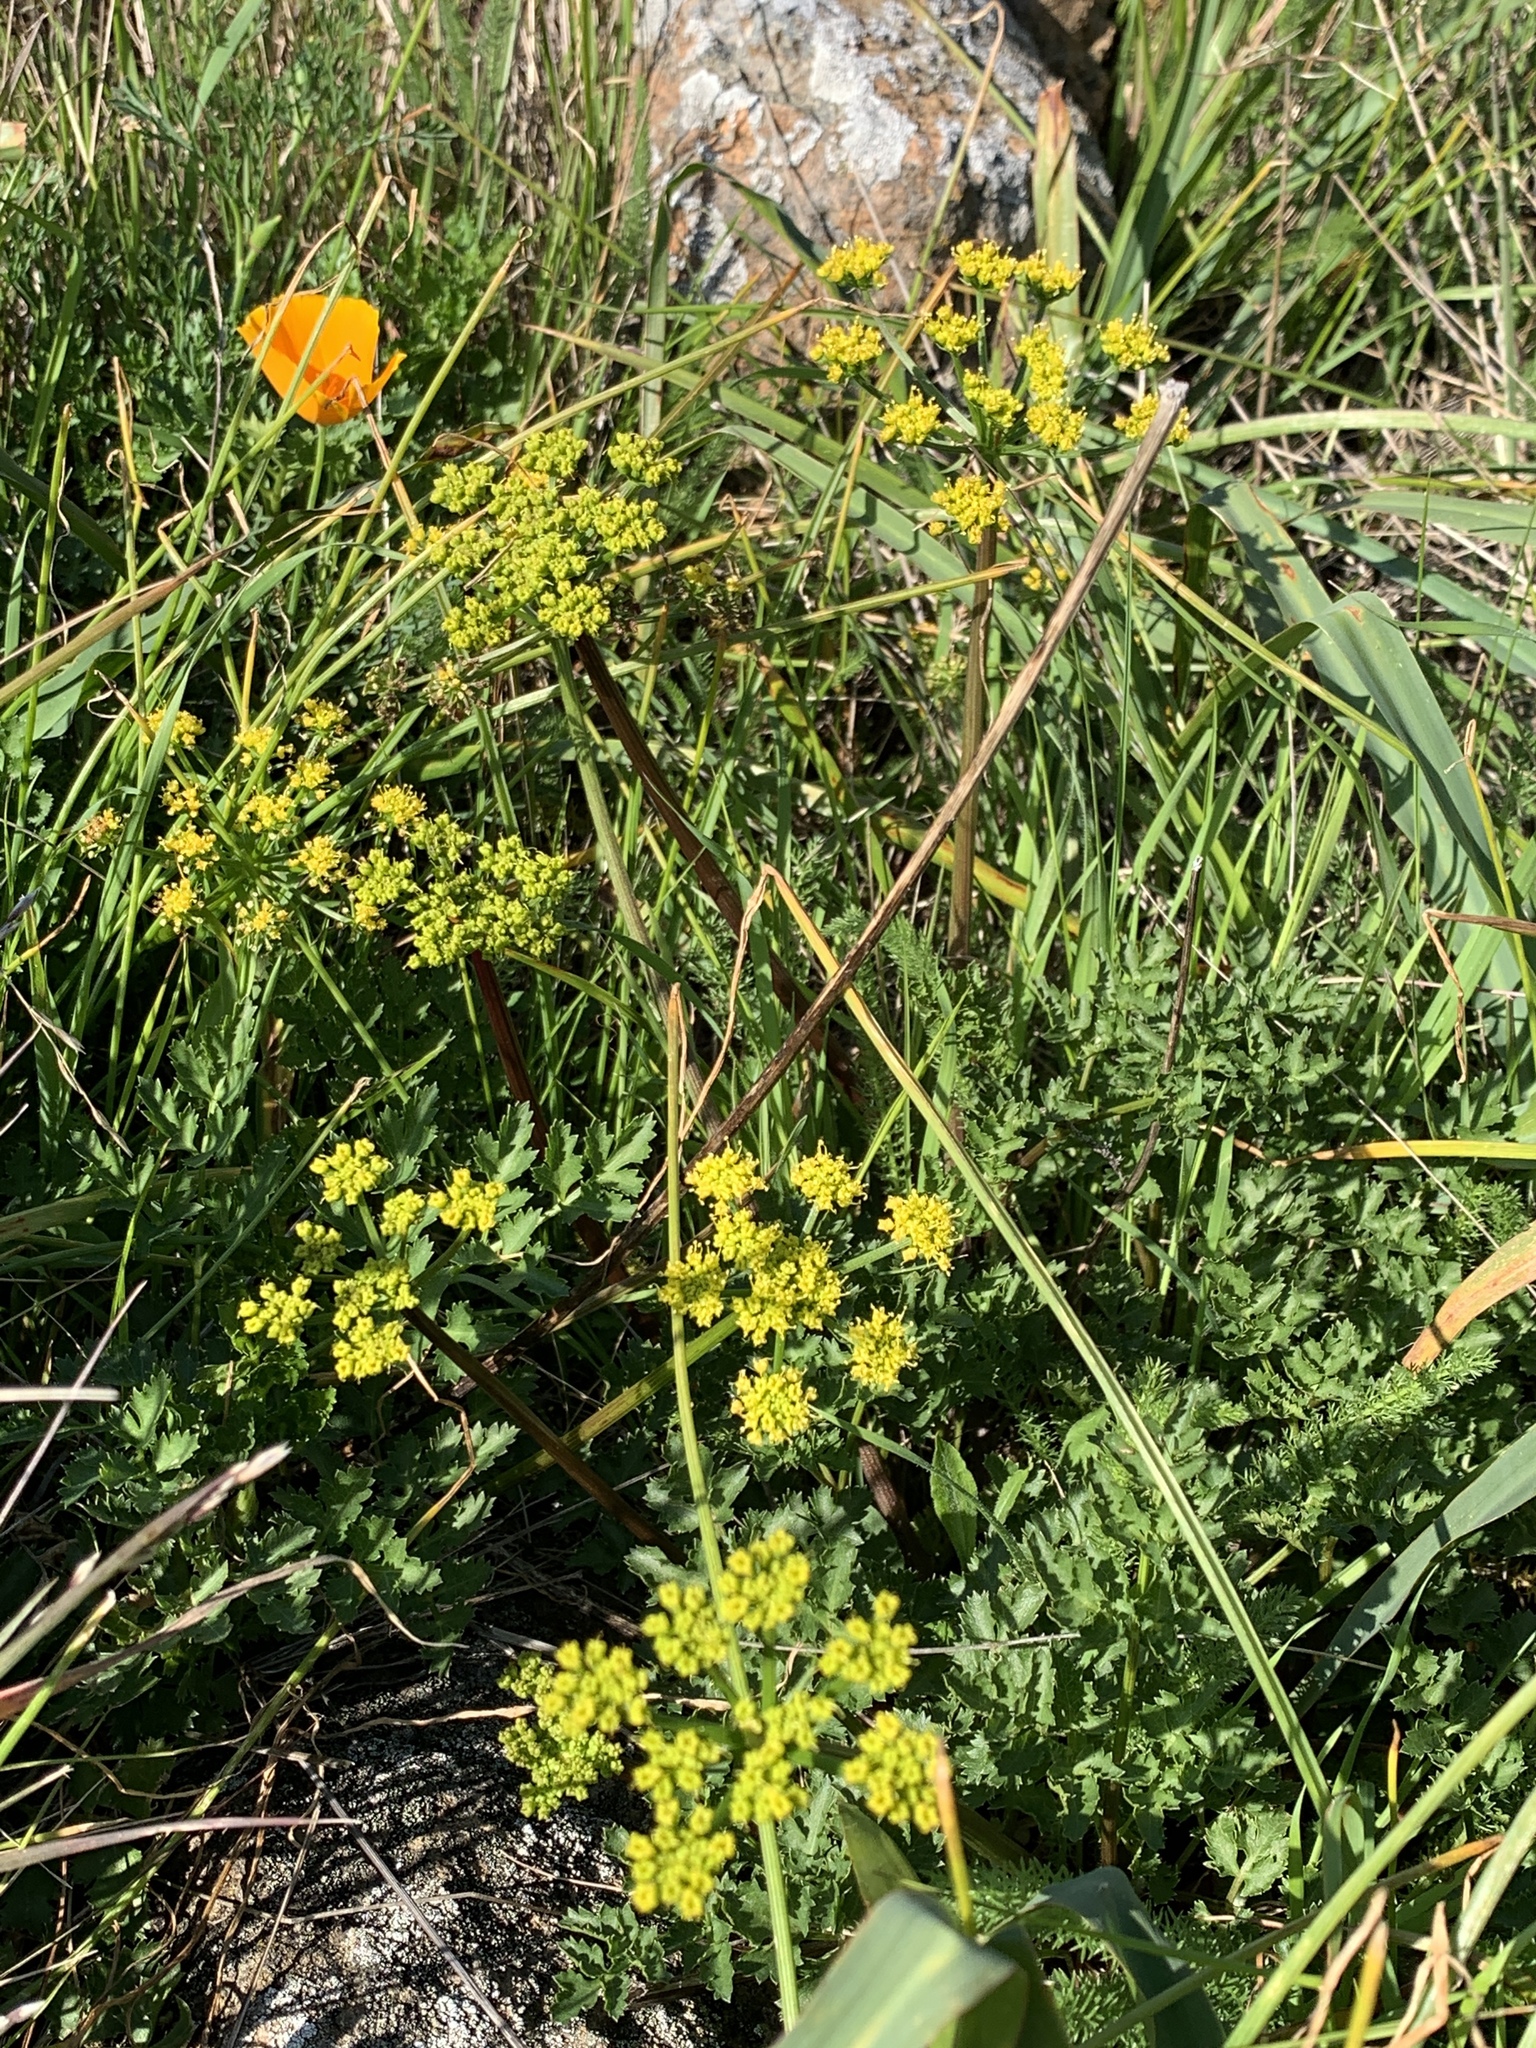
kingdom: Plantae
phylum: Tracheophyta
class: Magnoliopsida
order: Apiales
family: Apiaceae
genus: Tauschia
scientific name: Tauschia kelloggii
